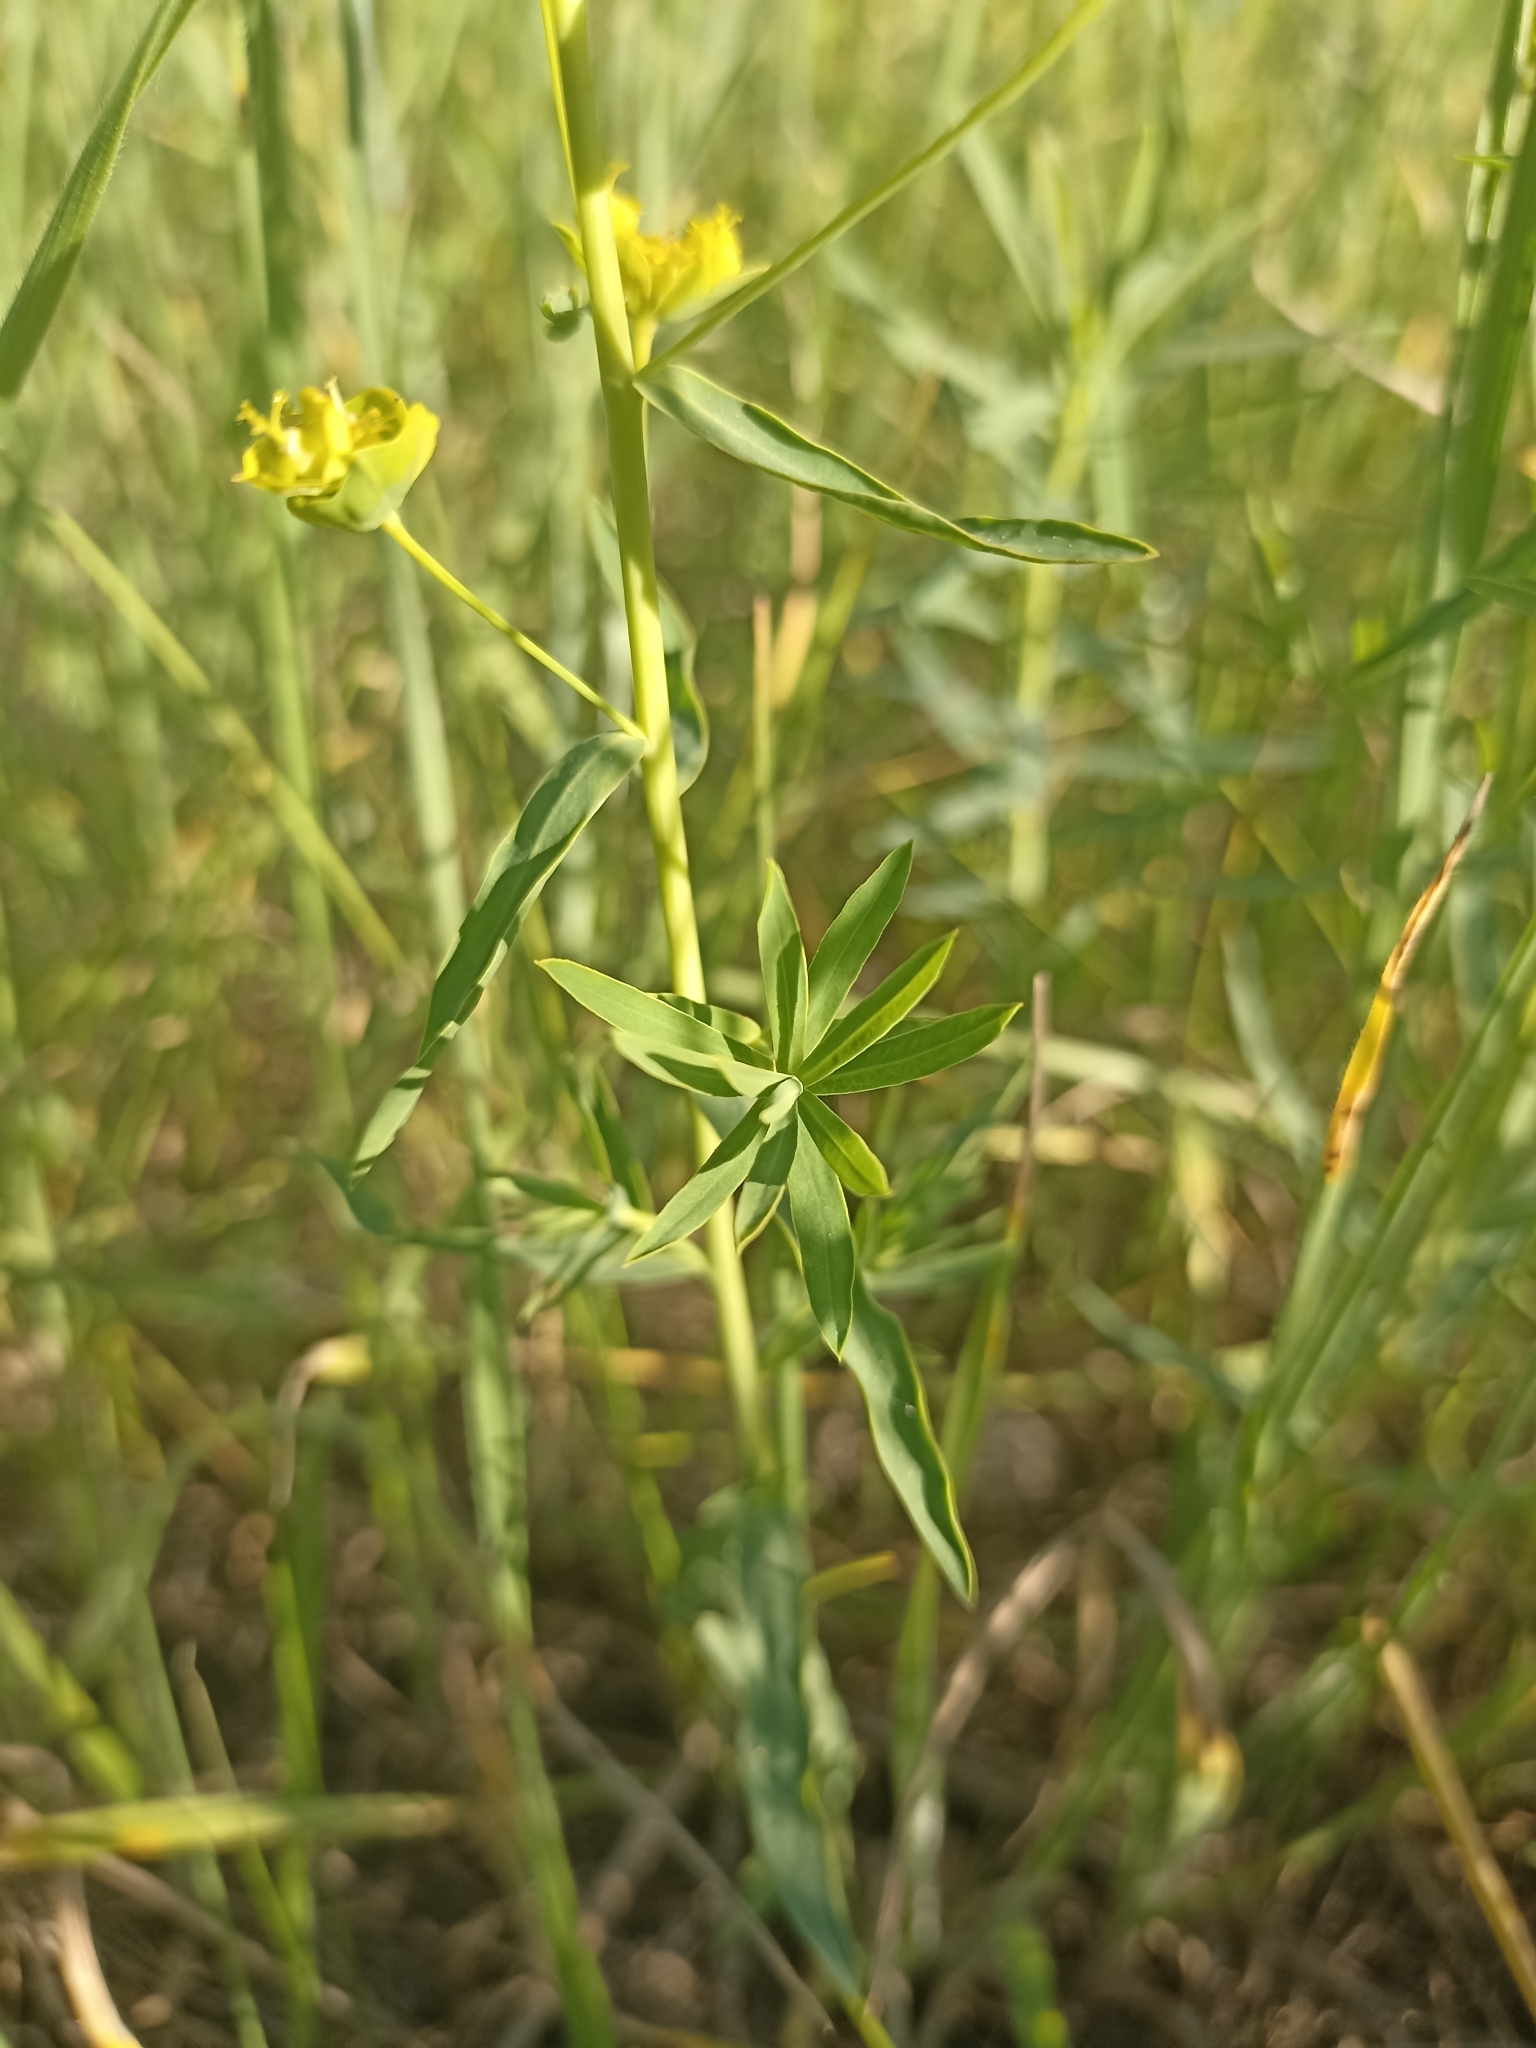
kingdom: Plantae
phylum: Tracheophyta
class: Magnoliopsida
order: Malpighiales
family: Euphorbiaceae
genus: Euphorbia
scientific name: Euphorbia virgata
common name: Leafy spurge
